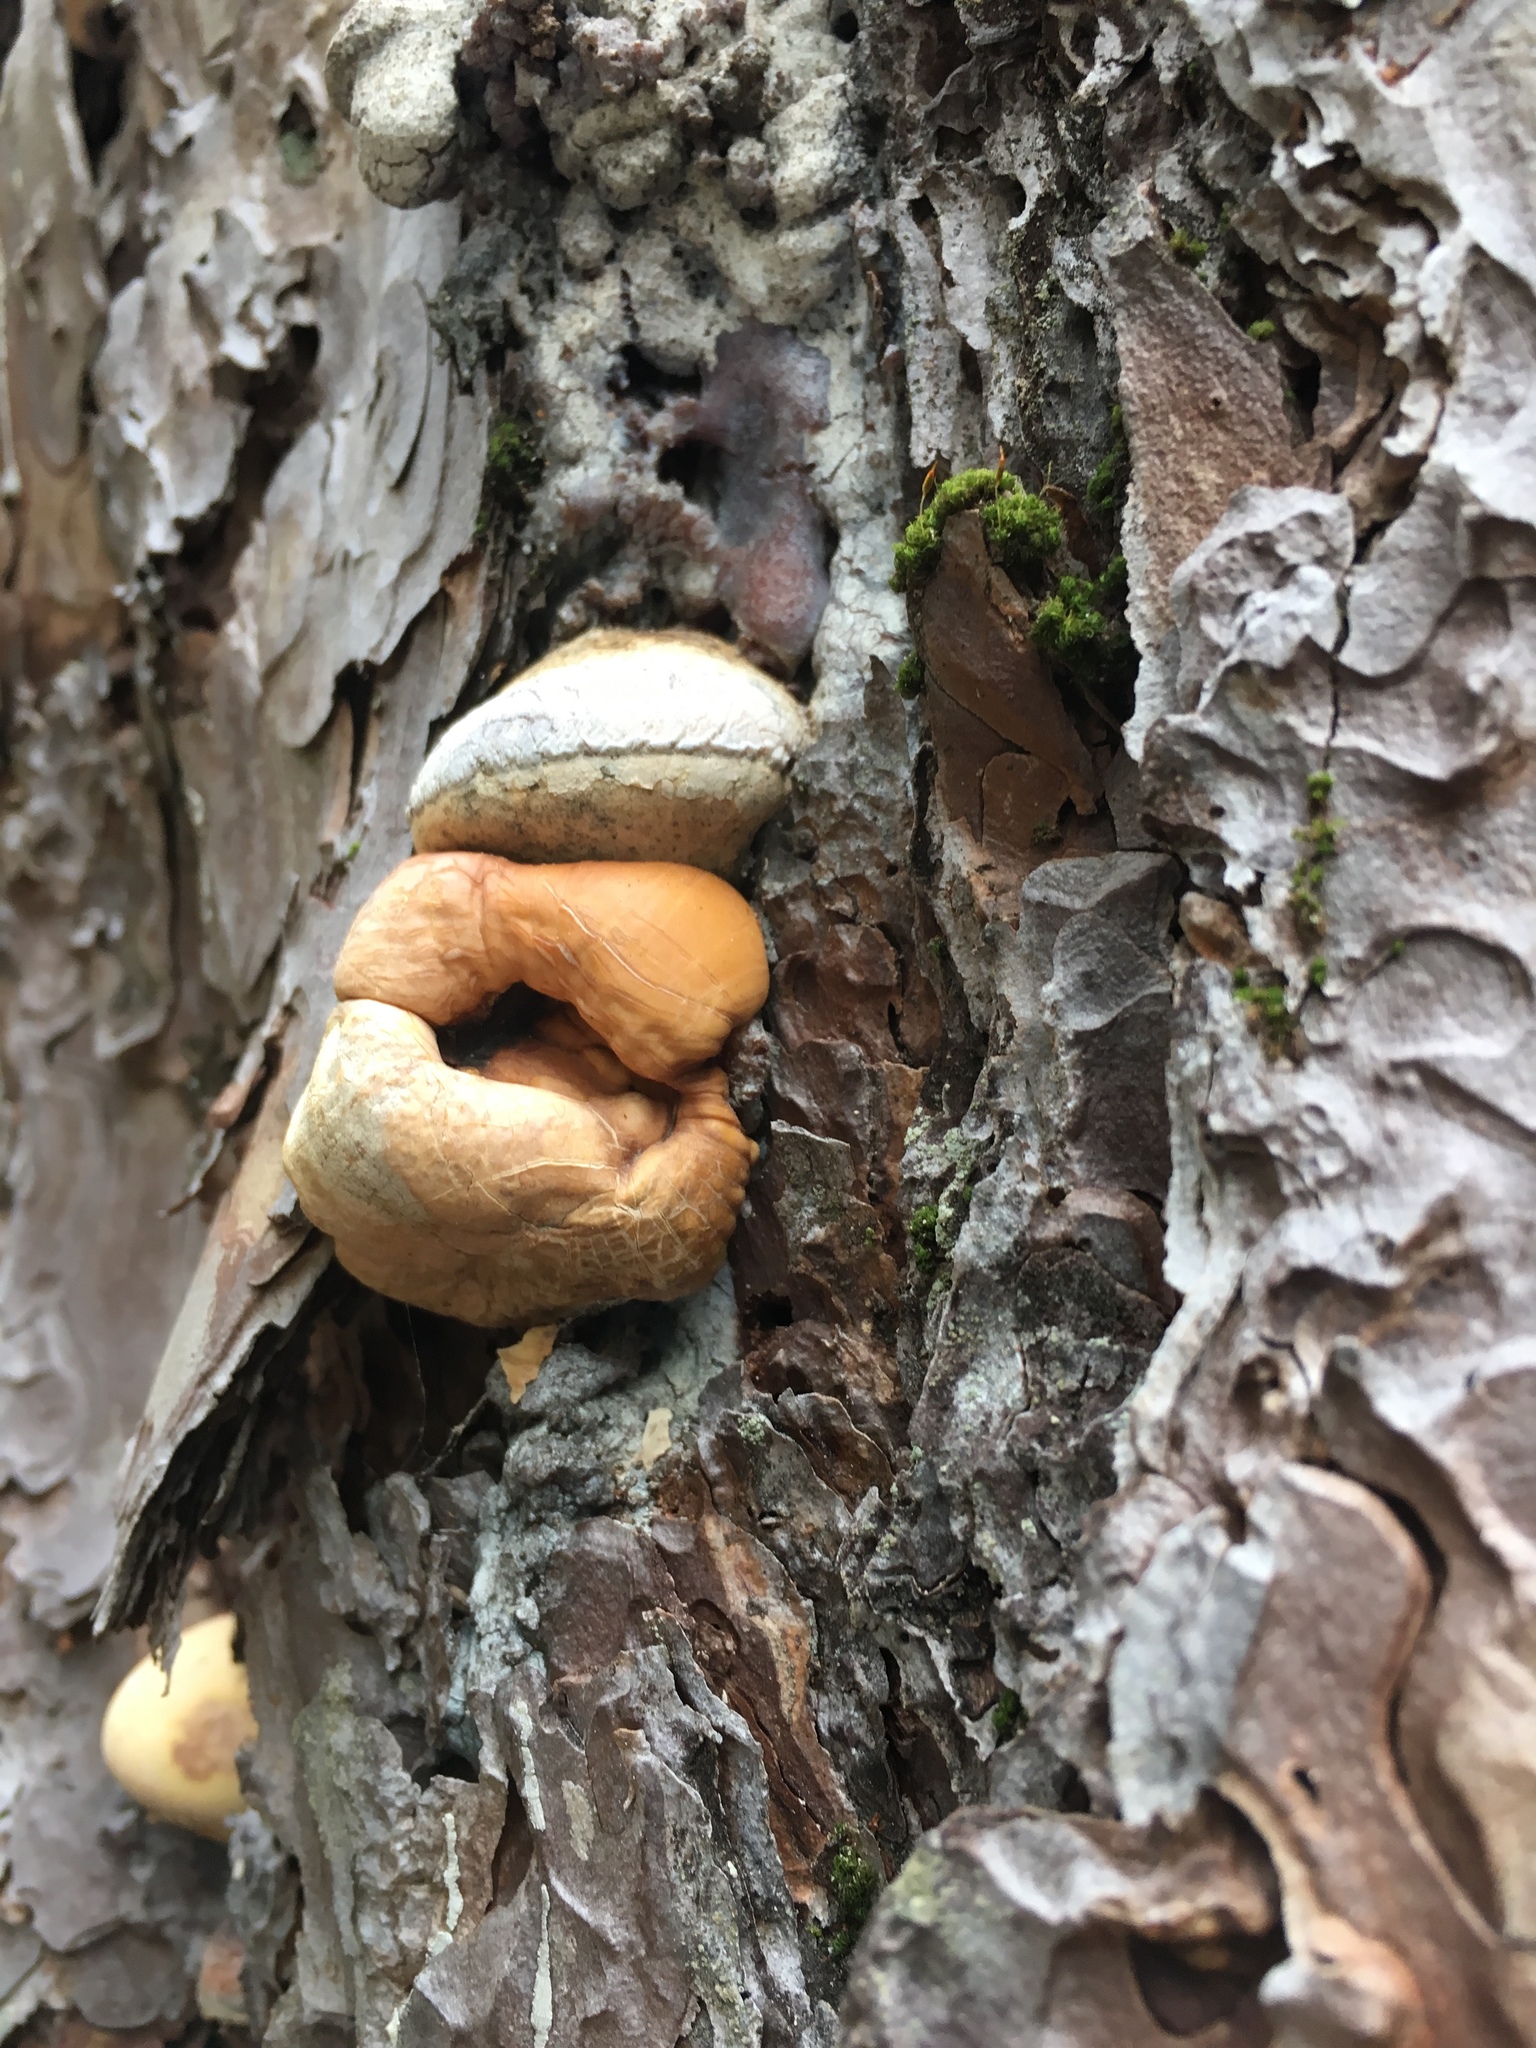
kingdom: Fungi
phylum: Basidiomycota
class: Agaricomycetes
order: Polyporales
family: Polyporaceae
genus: Cryptoporus
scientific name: Cryptoporus volvatus
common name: Veiled polypore
